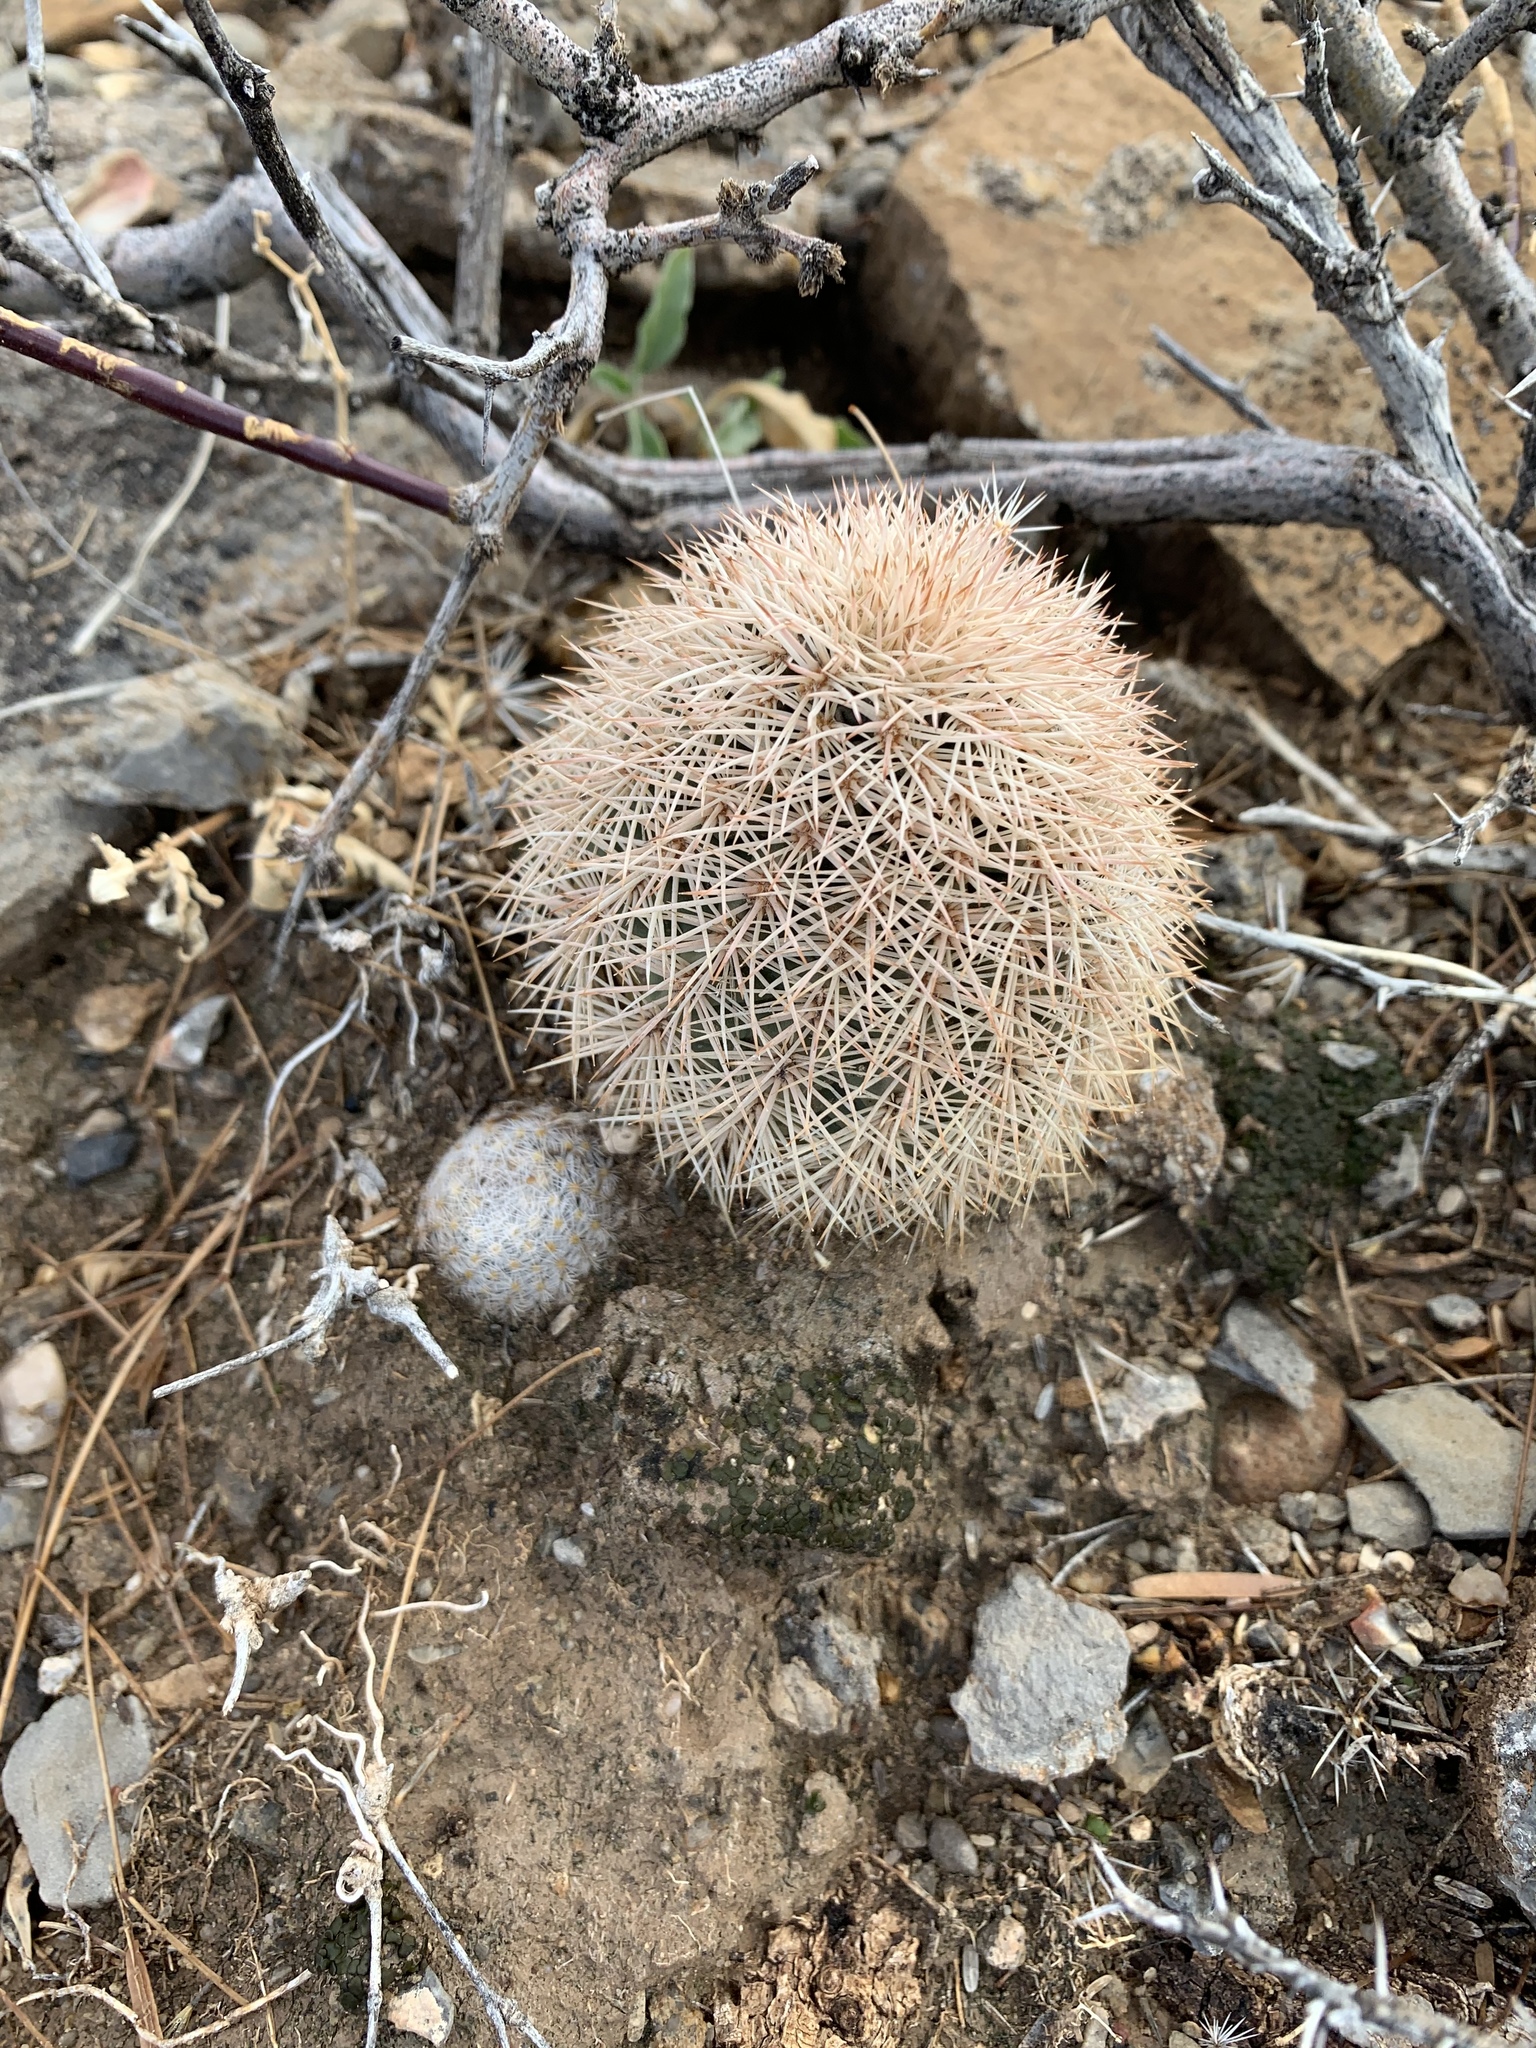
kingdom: Plantae
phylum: Tracheophyta
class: Magnoliopsida
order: Caryophyllales
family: Cactaceae
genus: Echinocereus
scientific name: Echinocereus dasyacanthus
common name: Spiny hedgehog cactus
